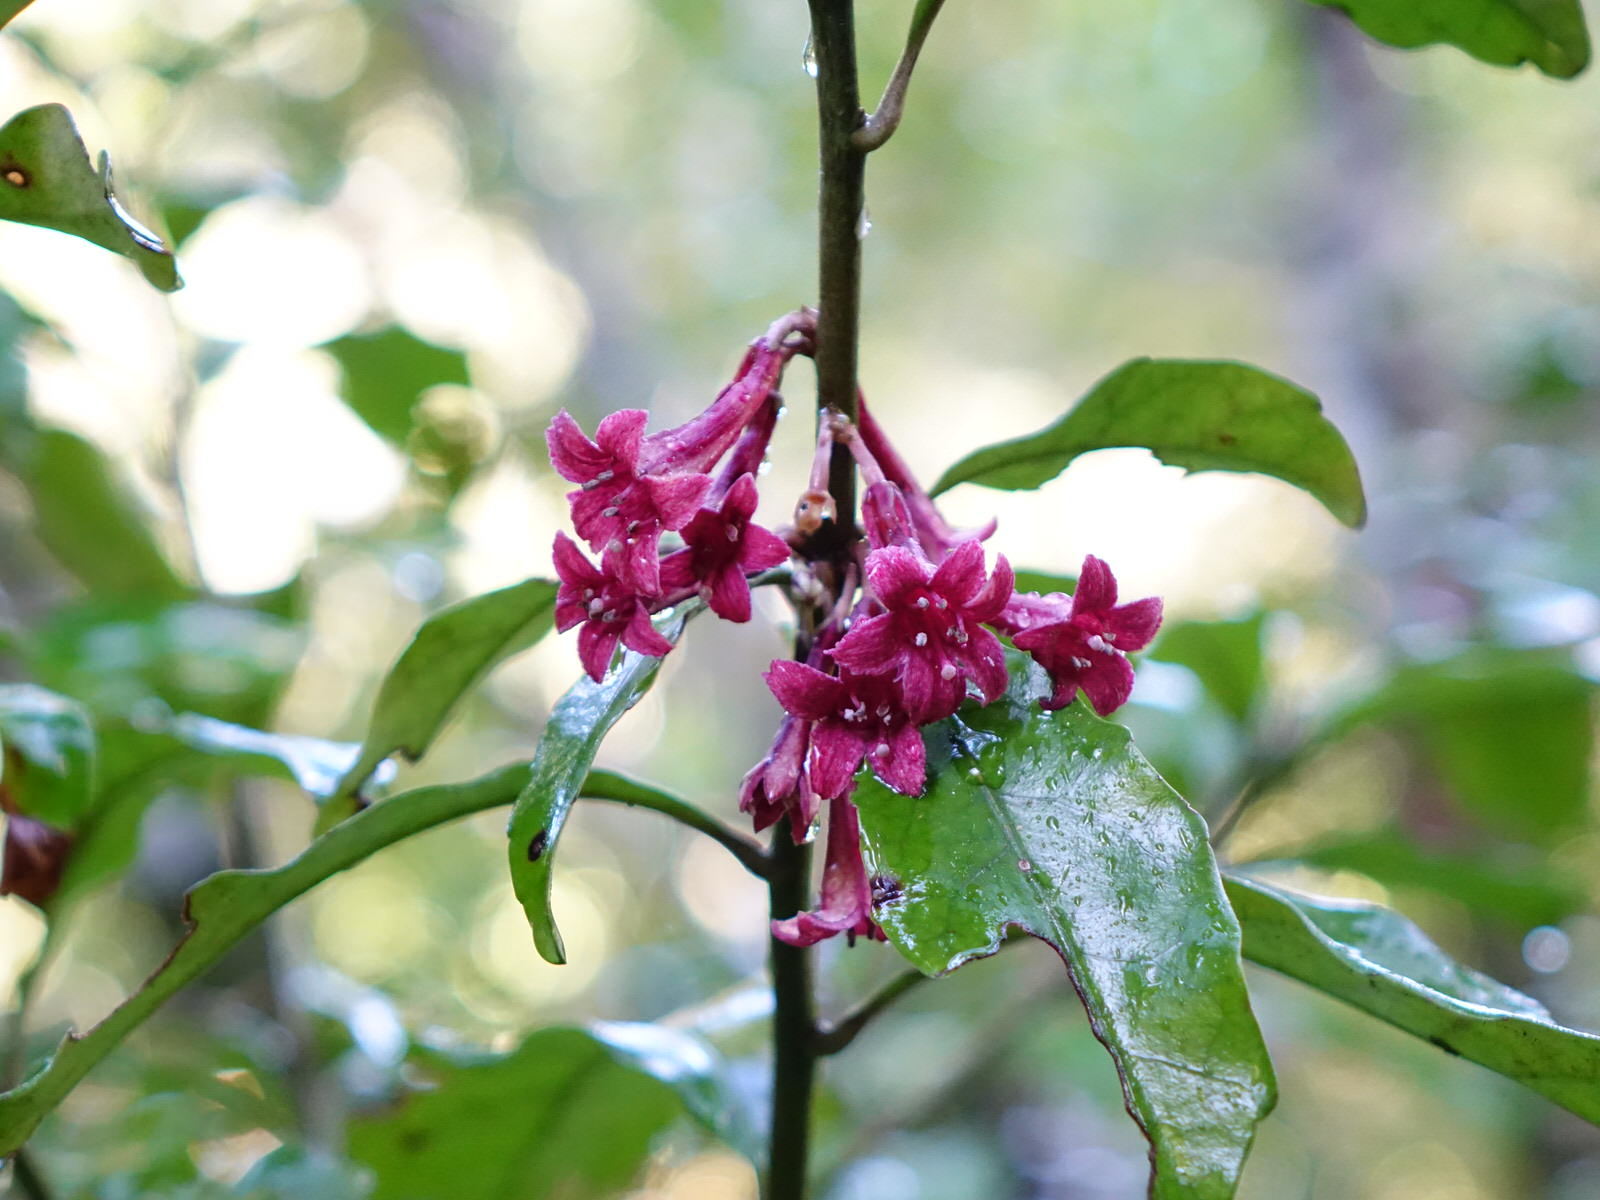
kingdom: Plantae
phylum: Tracheophyta
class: Magnoliopsida
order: Asterales
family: Alseuosmiaceae
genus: Alseuosmia
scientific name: Alseuosmia macrophylla
